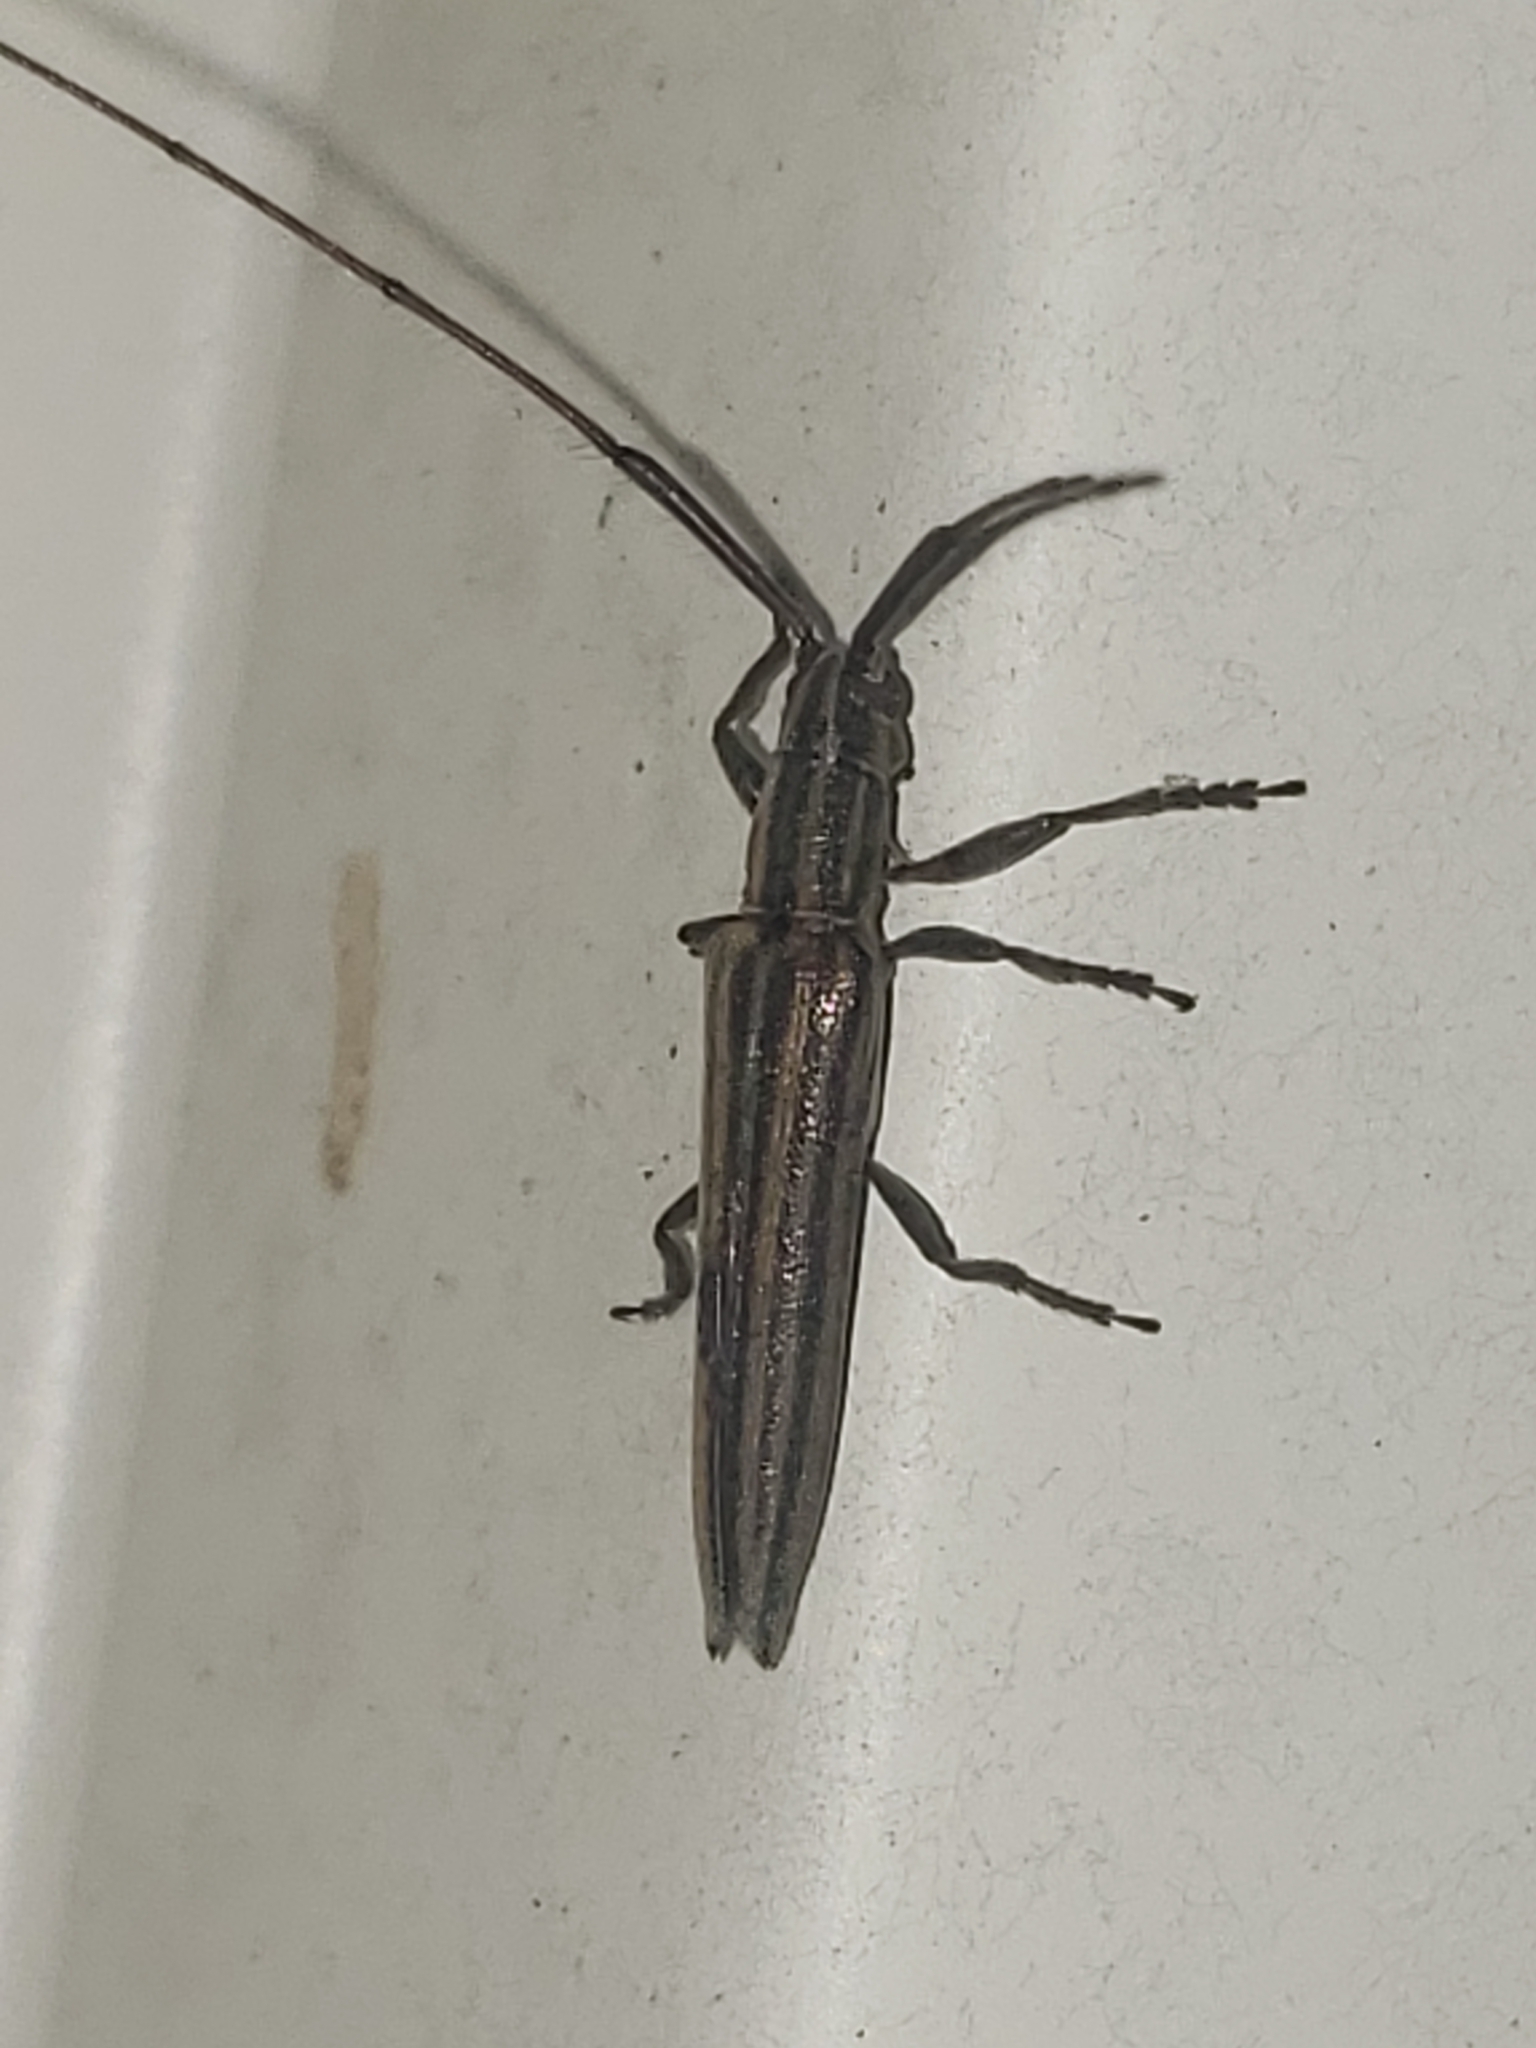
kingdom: Animalia
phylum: Arthropoda
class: Insecta
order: Coleoptera
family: Cerambycidae
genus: Hippopsis
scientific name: Hippopsis
